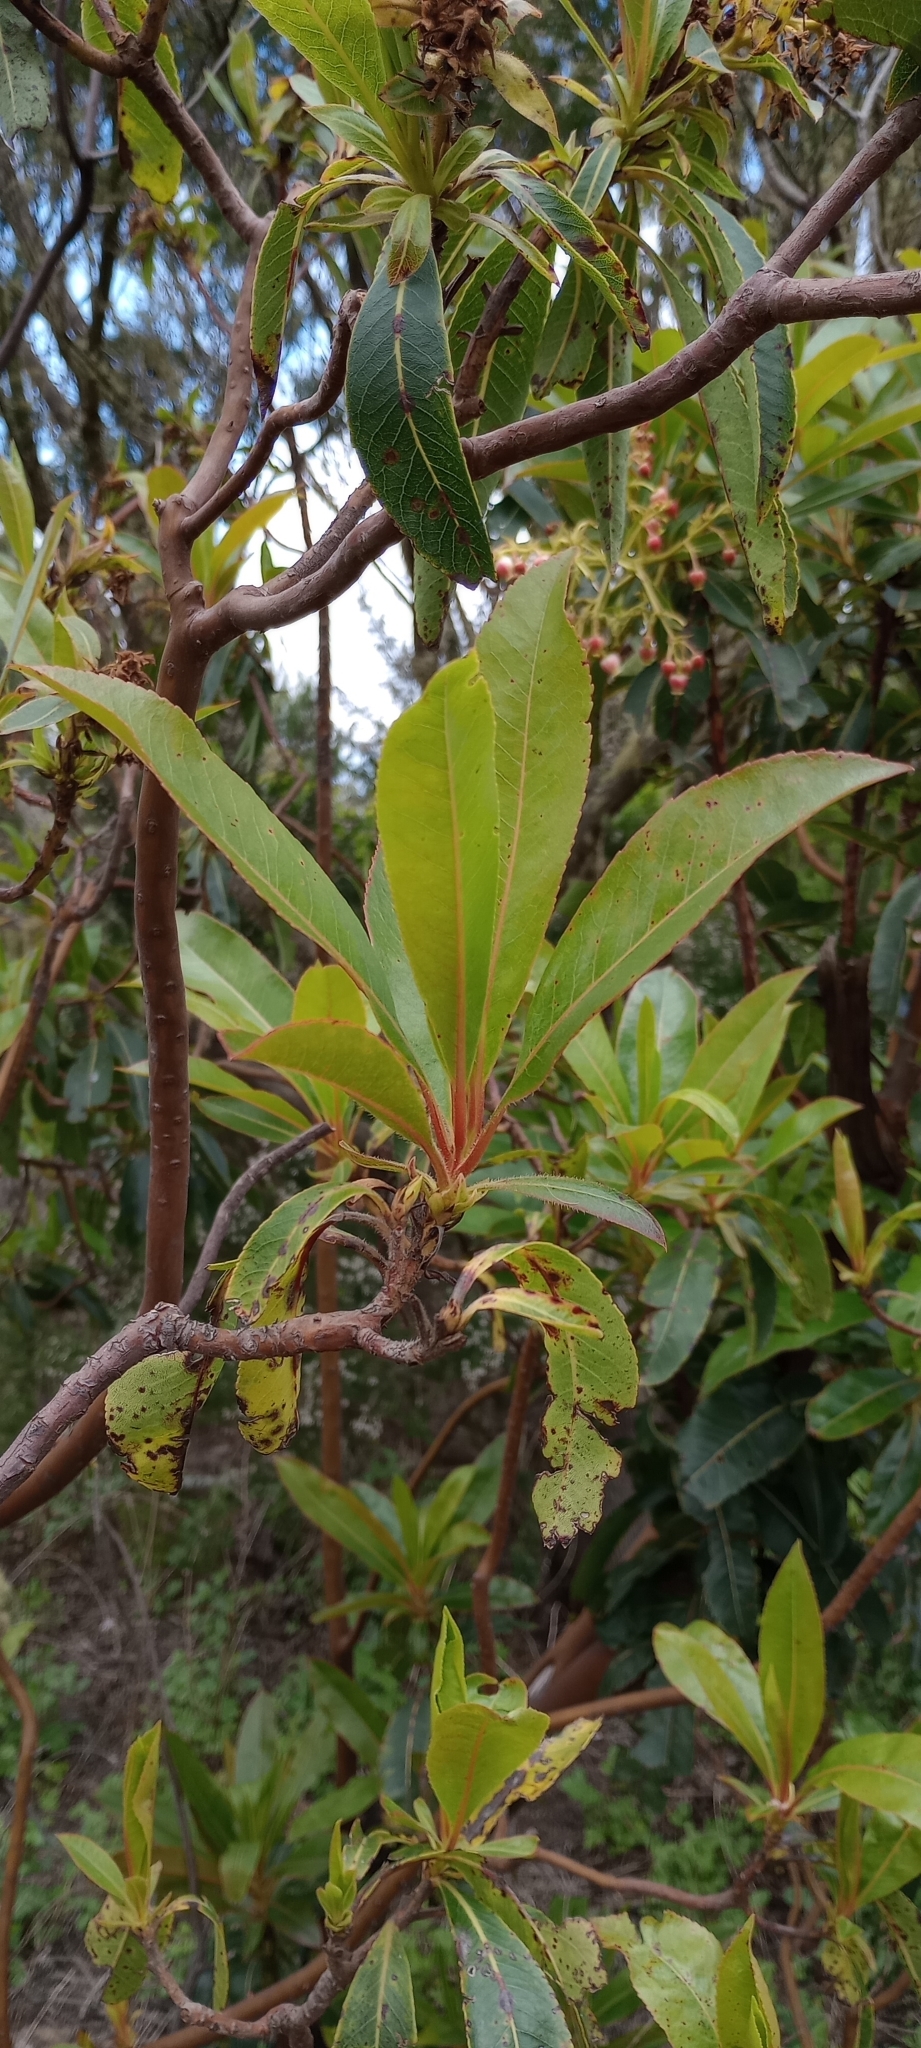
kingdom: Plantae
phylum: Tracheophyta
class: Magnoliopsida
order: Ericales
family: Ericaceae
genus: Arbutus
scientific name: Arbutus canariensis
